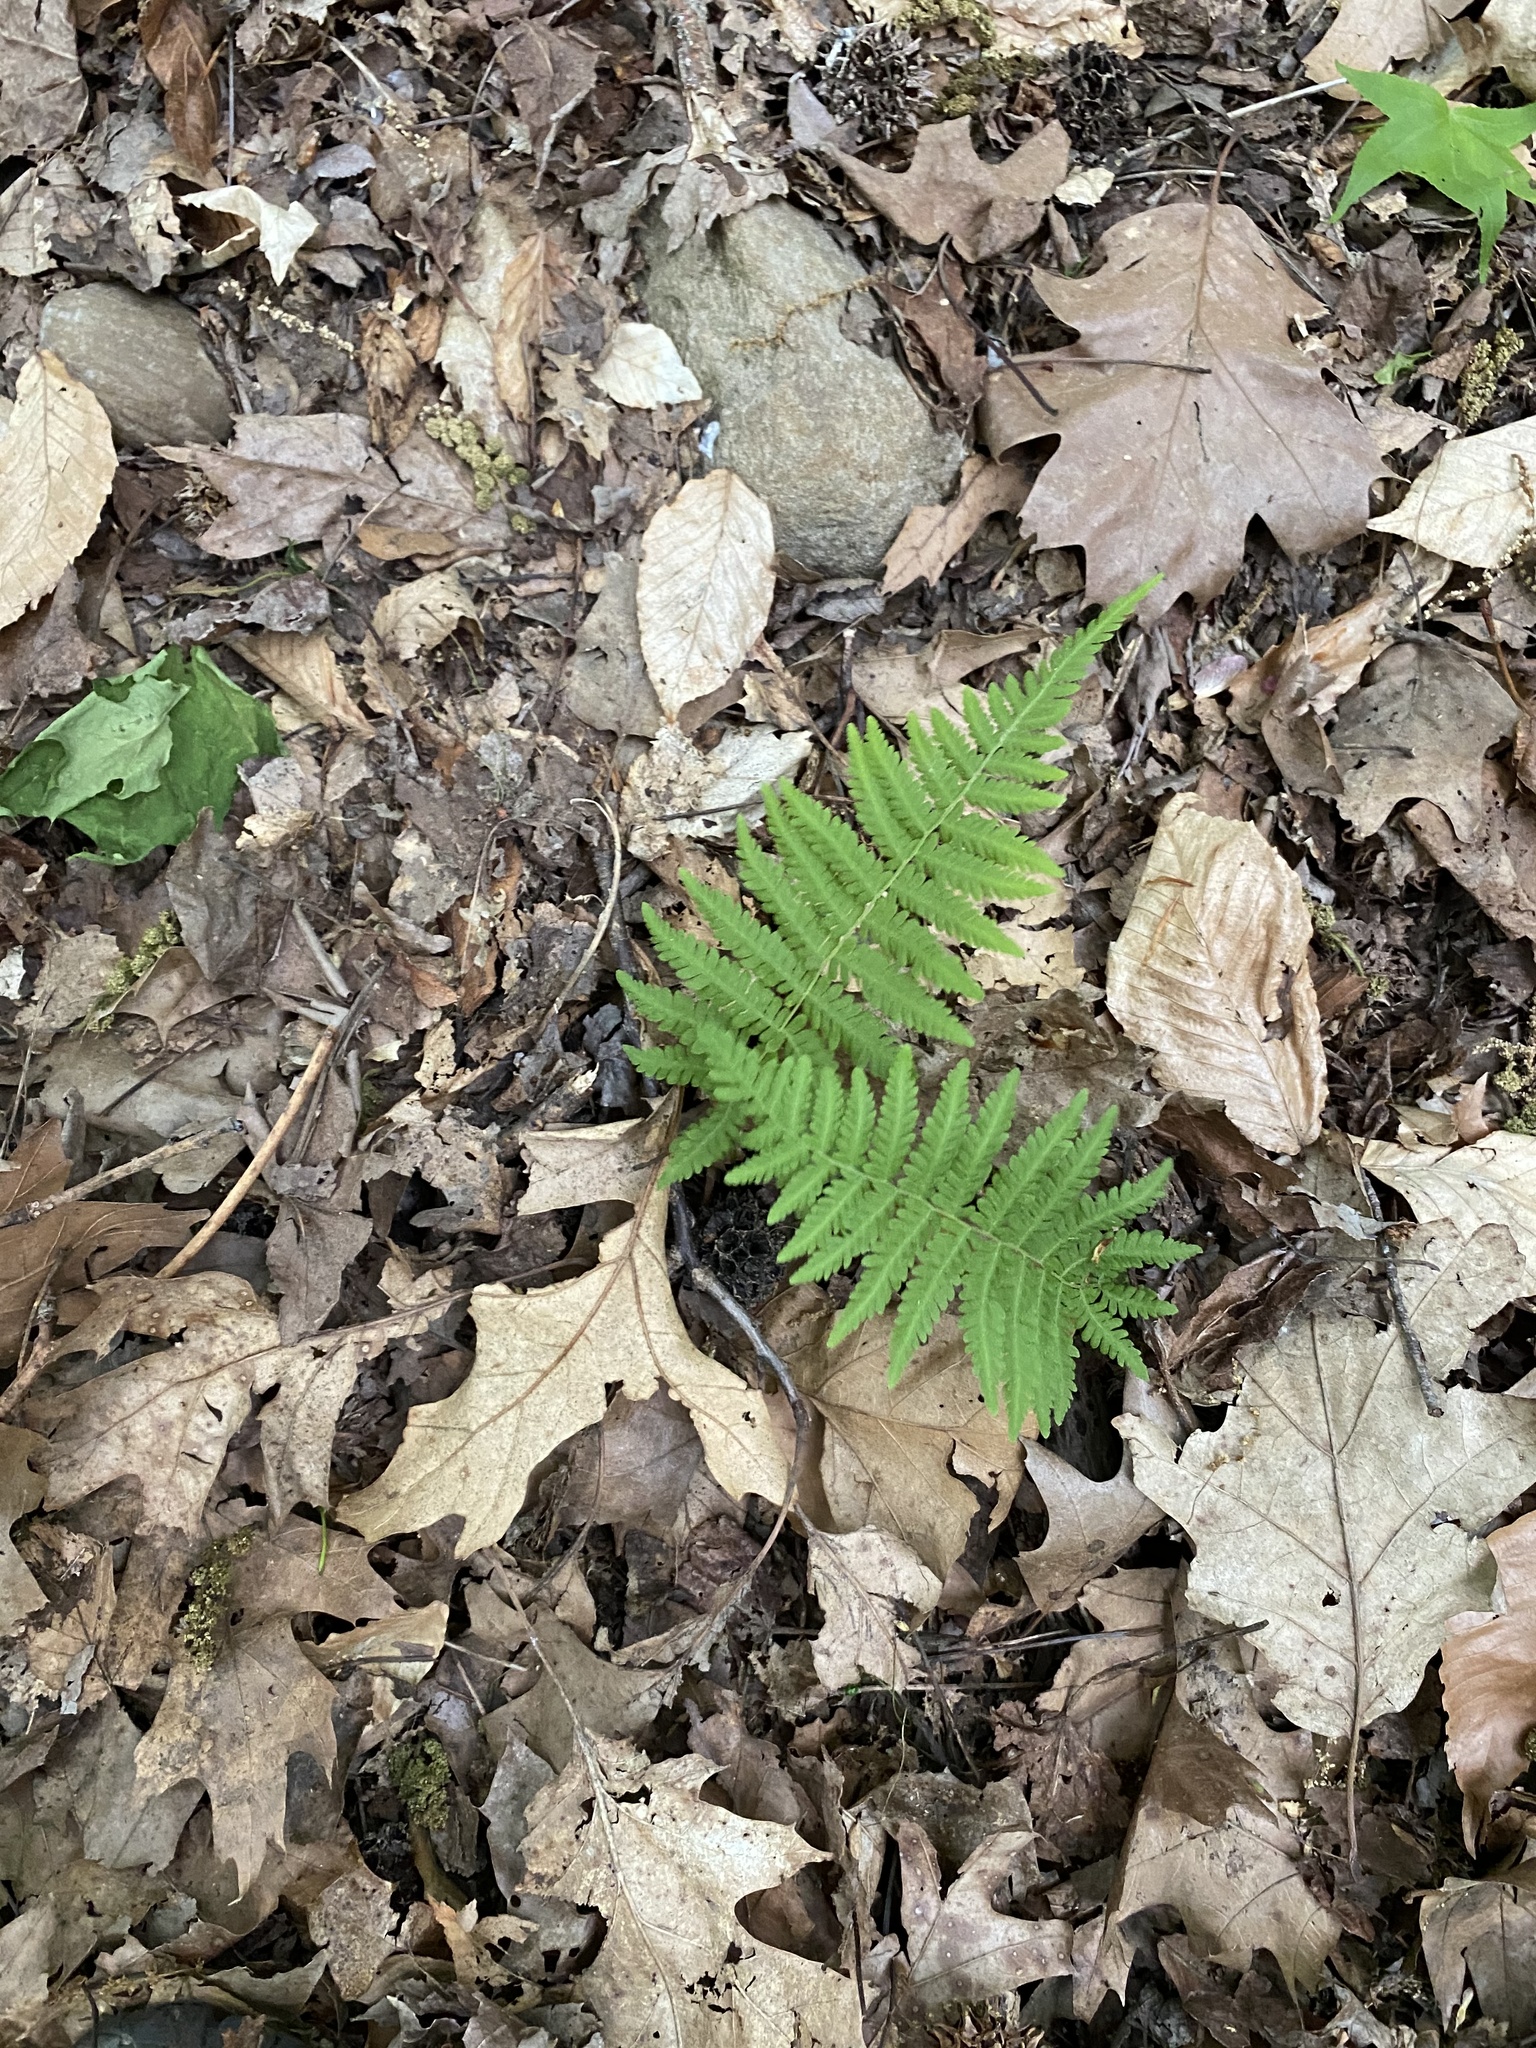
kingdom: Plantae
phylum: Tracheophyta
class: Polypodiopsida
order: Polypodiales
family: Thelypteridaceae
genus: Amauropelta
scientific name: Amauropelta noveboracensis
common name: New york fern
